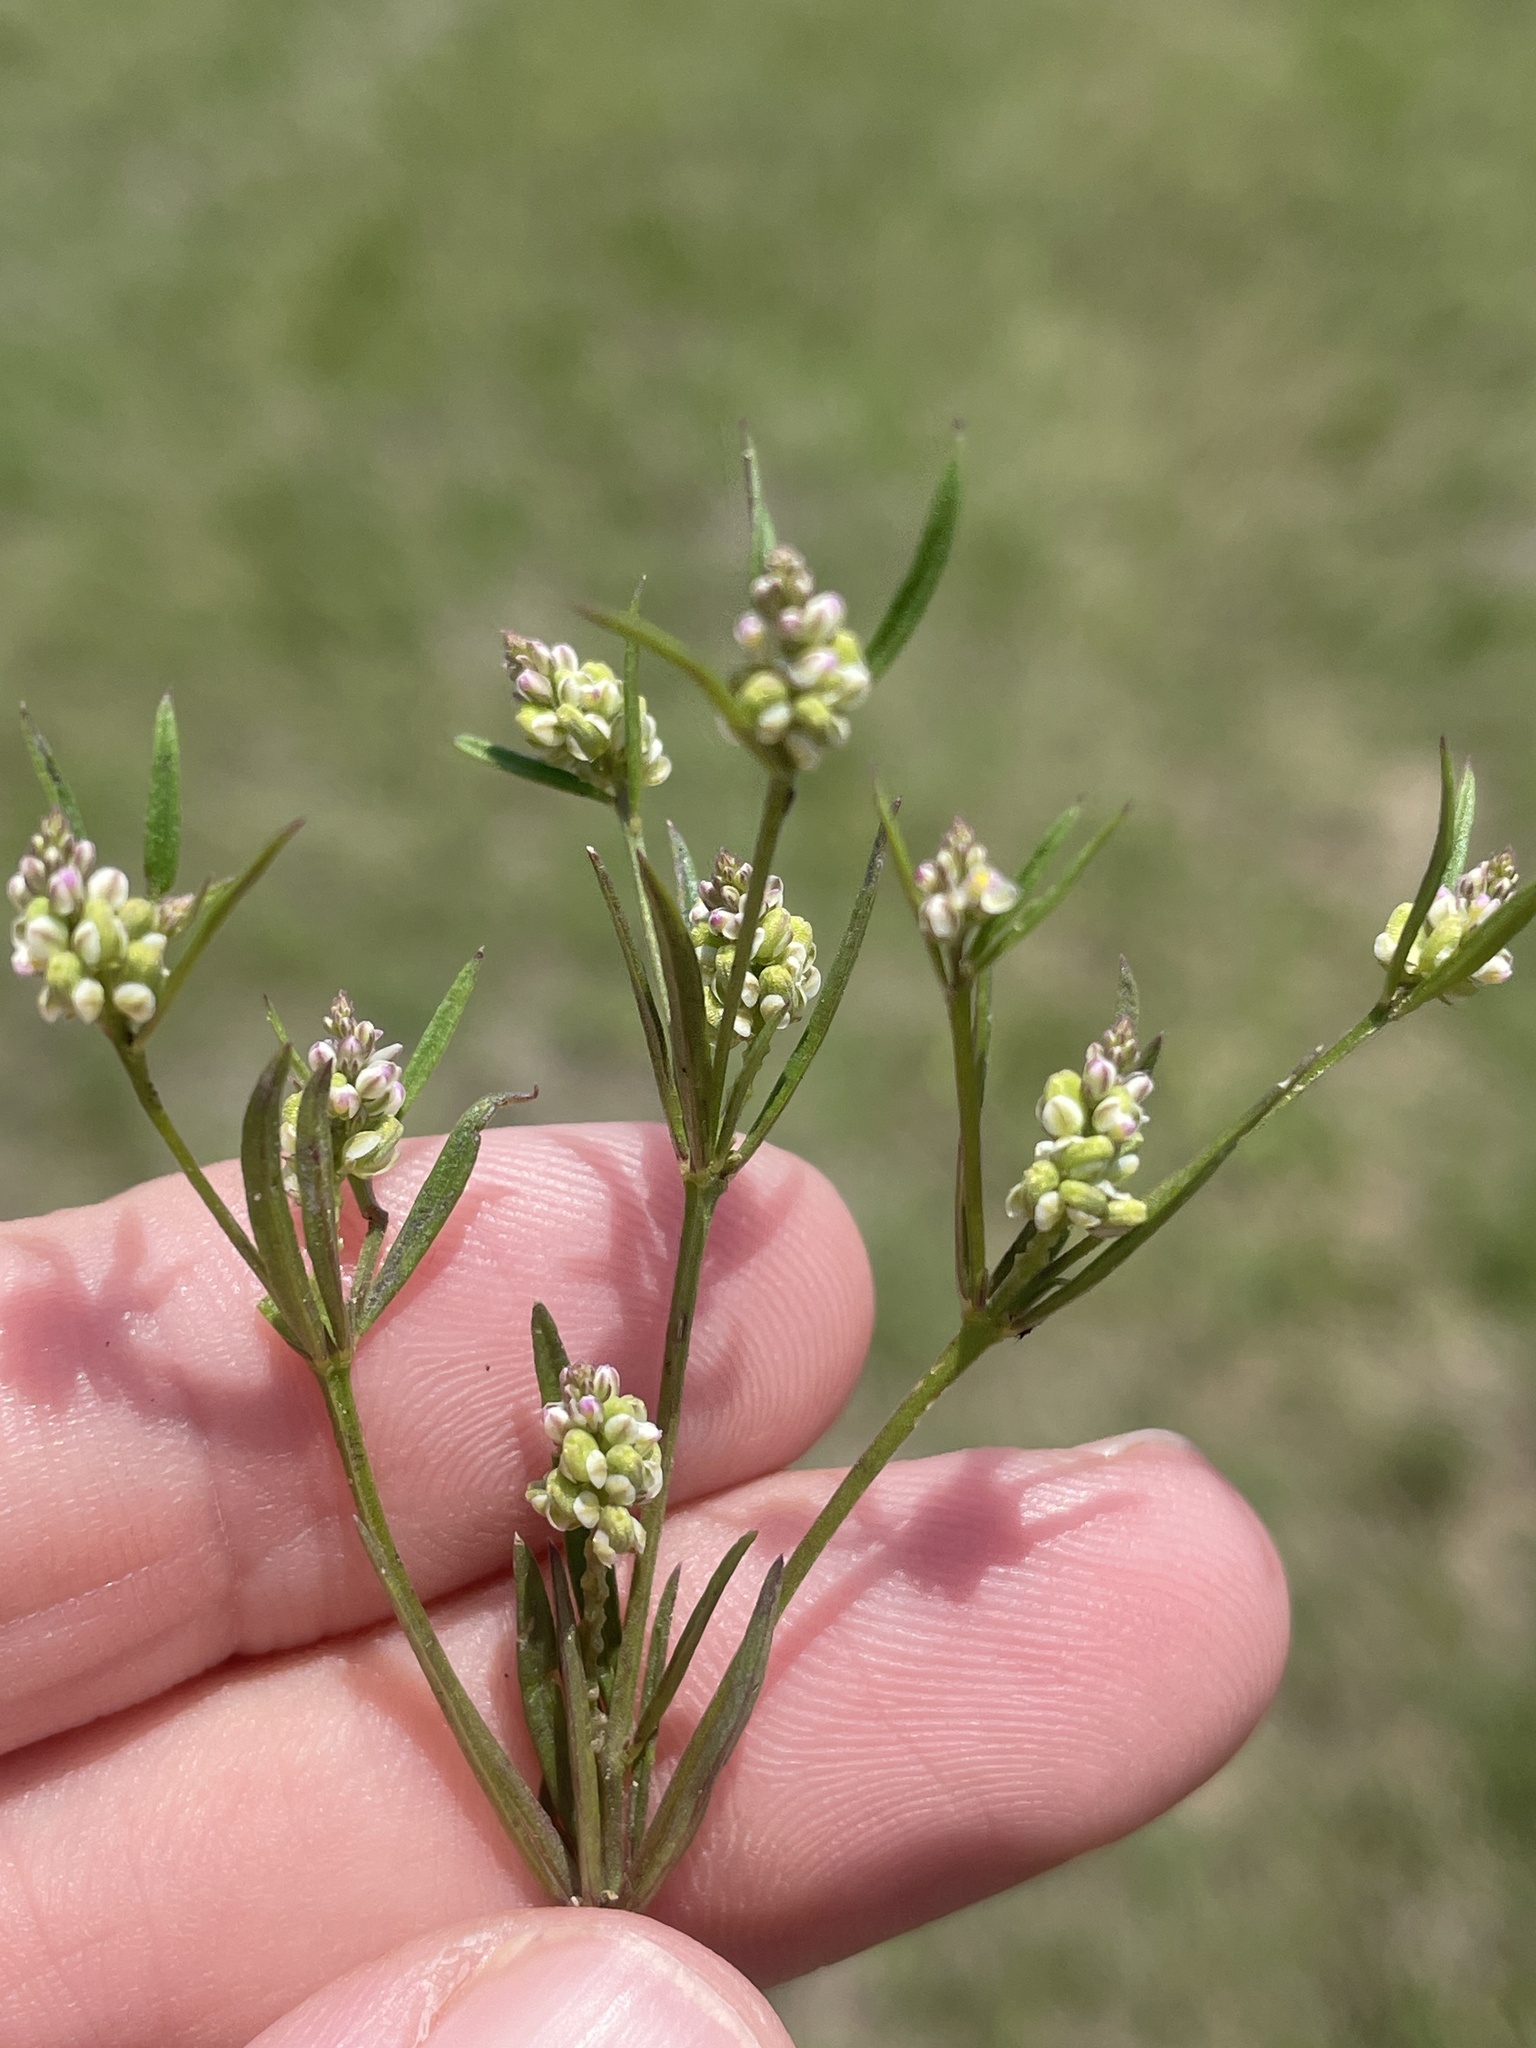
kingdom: Plantae
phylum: Tracheophyta
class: Magnoliopsida
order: Fabales
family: Polygalaceae
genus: Polygala
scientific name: Polygala verticillata
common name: Whorl milkwort
